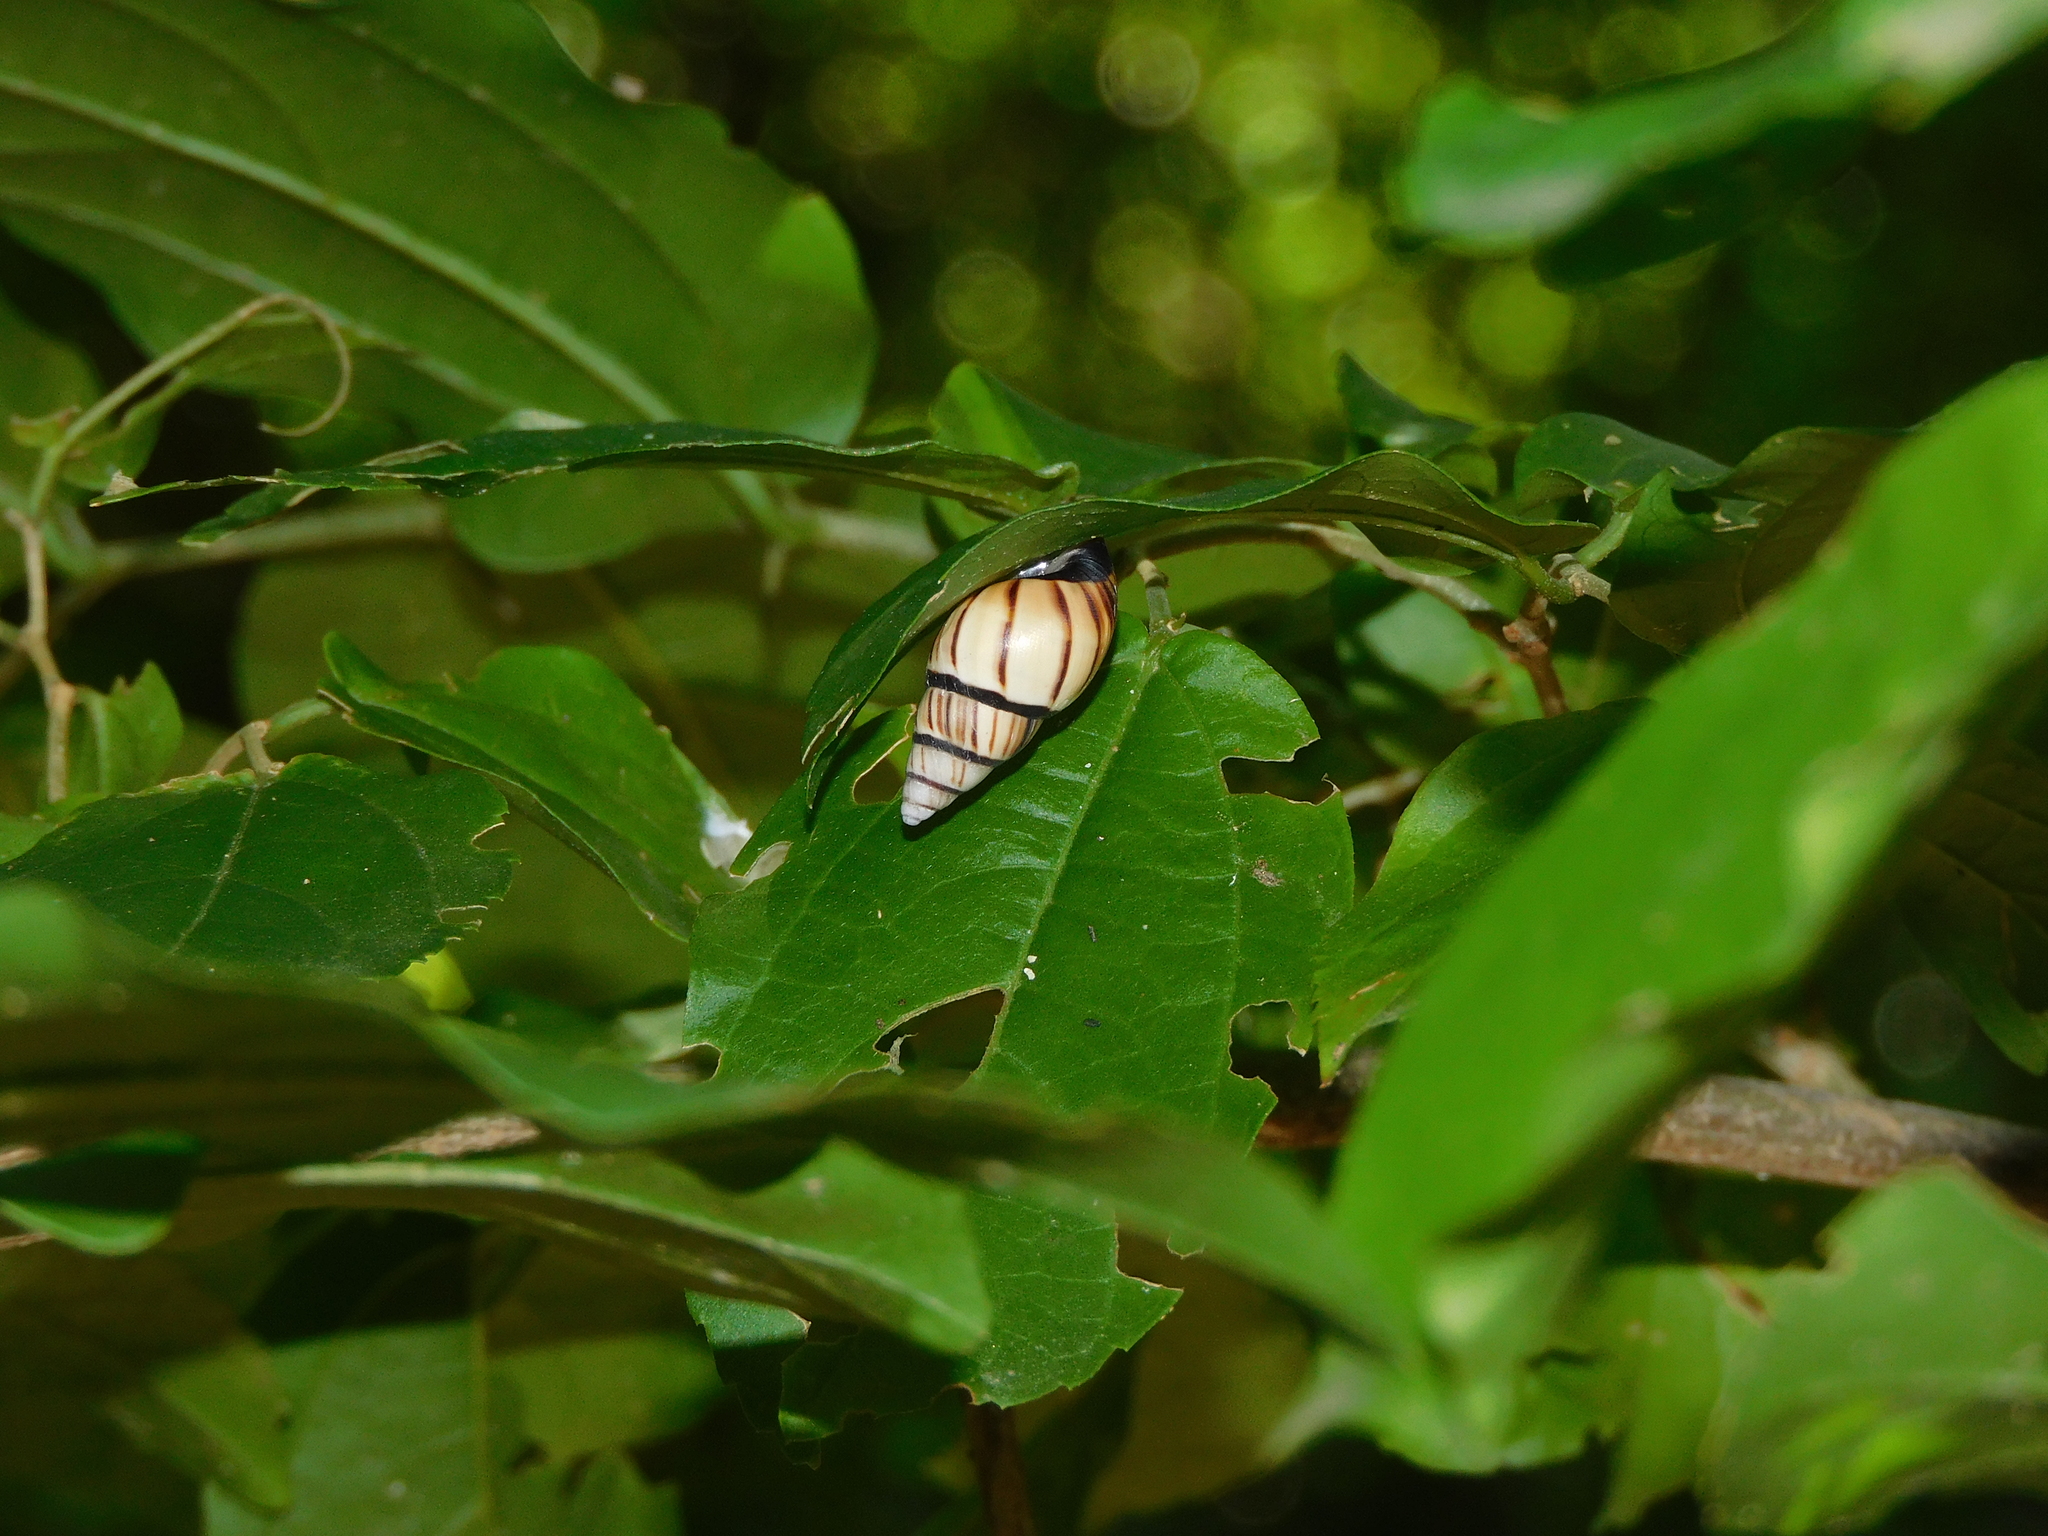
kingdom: Animalia
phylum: Mollusca
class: Gastropoda
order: Stylommatophora
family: Bulimulidae
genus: Drymaeus
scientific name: Drymaeus
